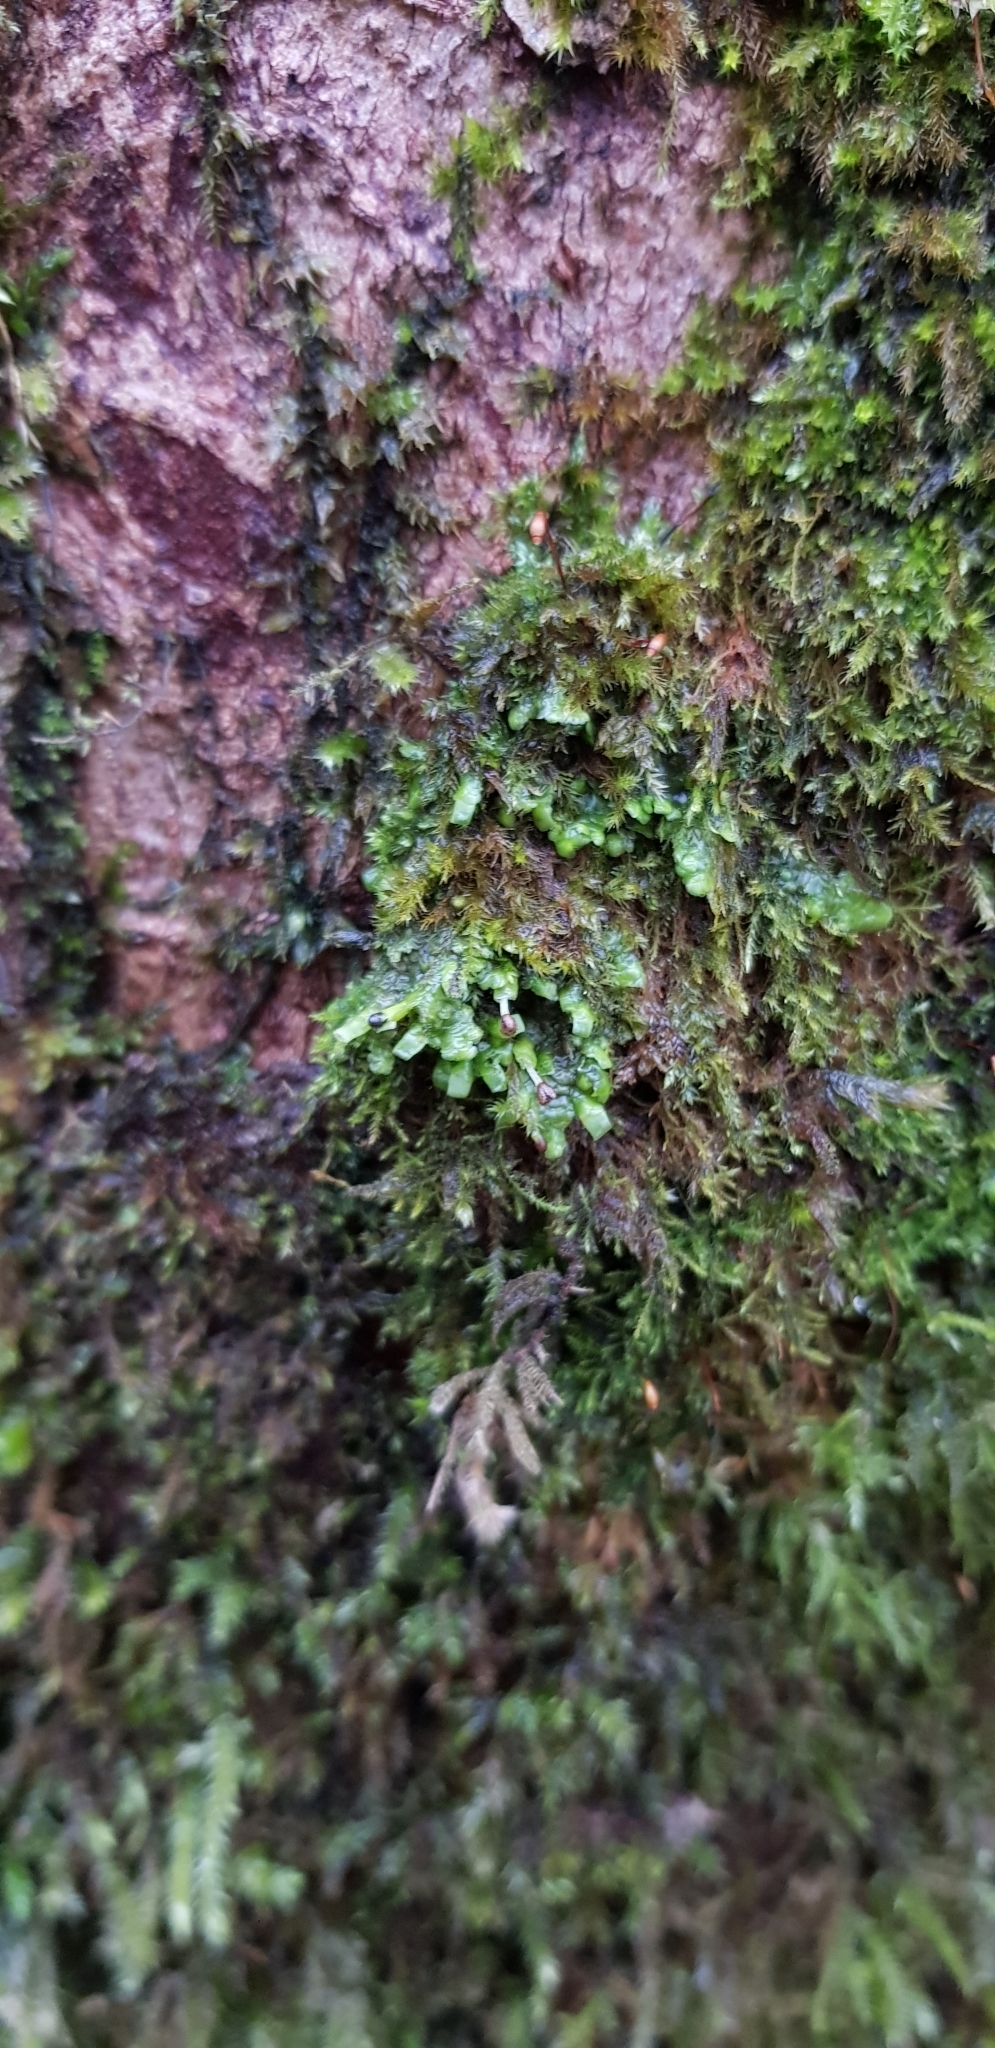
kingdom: Plantae
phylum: Marchantiophyta
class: Jungermanniopsida
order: Porellales
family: Radulaceae
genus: Radula
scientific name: Radula complanata
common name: Flat-leaved scalewort
